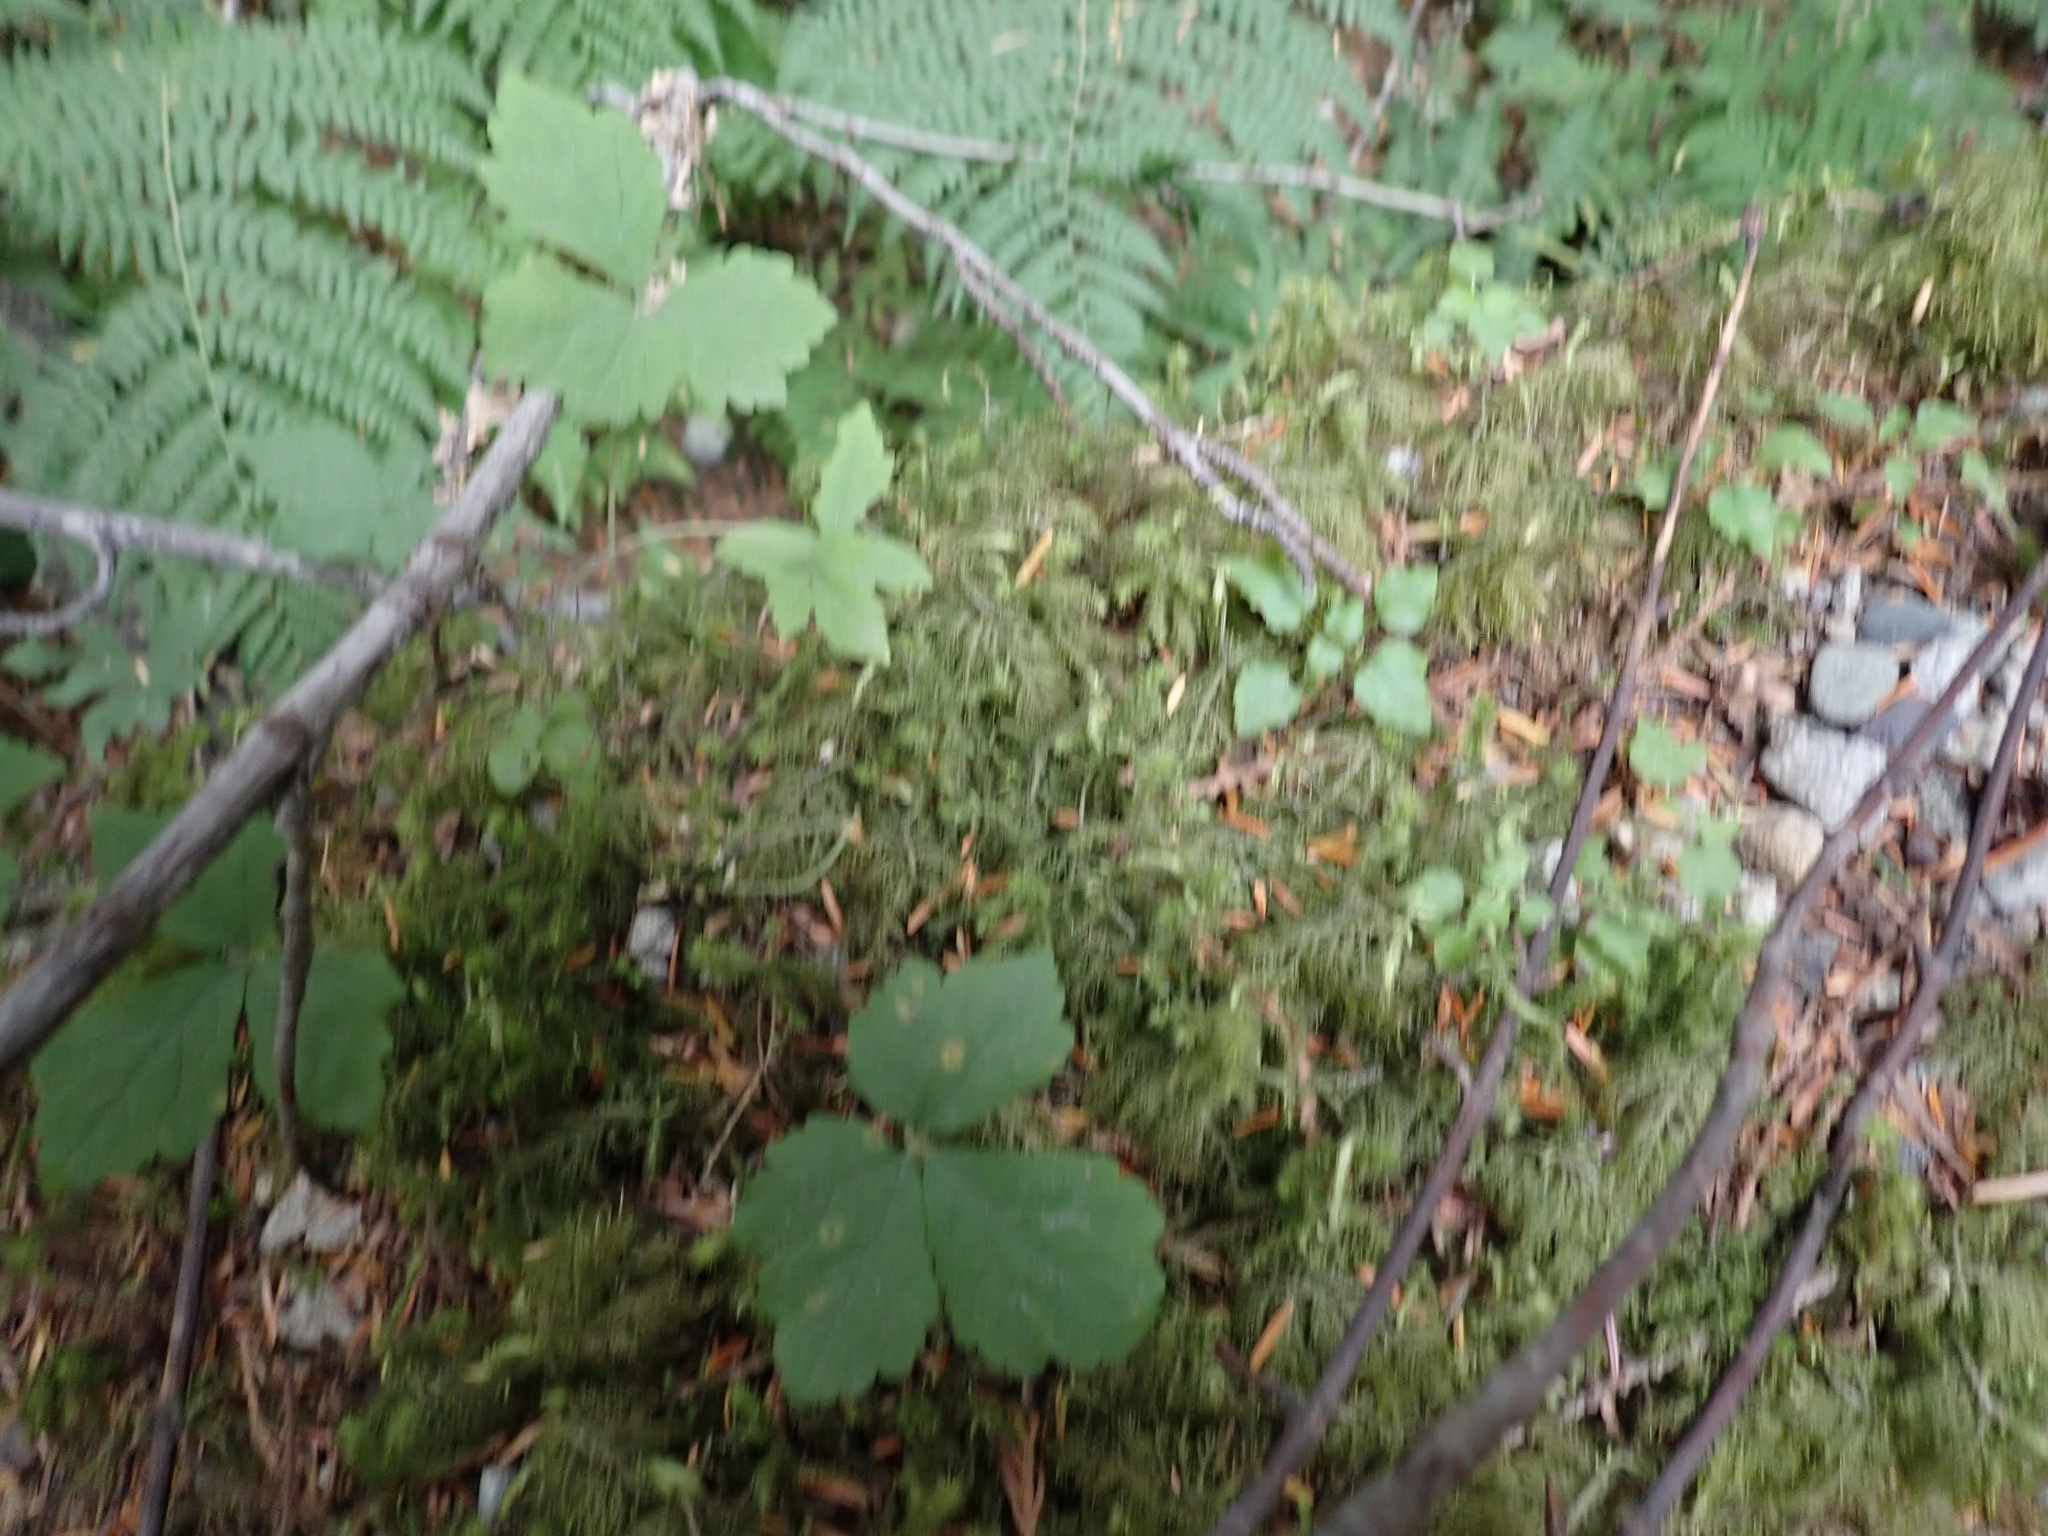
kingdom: Plantae
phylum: Bryophyta
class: Bryopsida
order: Hypnales
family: Hylocomiaceae
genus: Hylocomiadelphus
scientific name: Hylocomiadelphus triquetrus
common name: Rough goose neck moss
